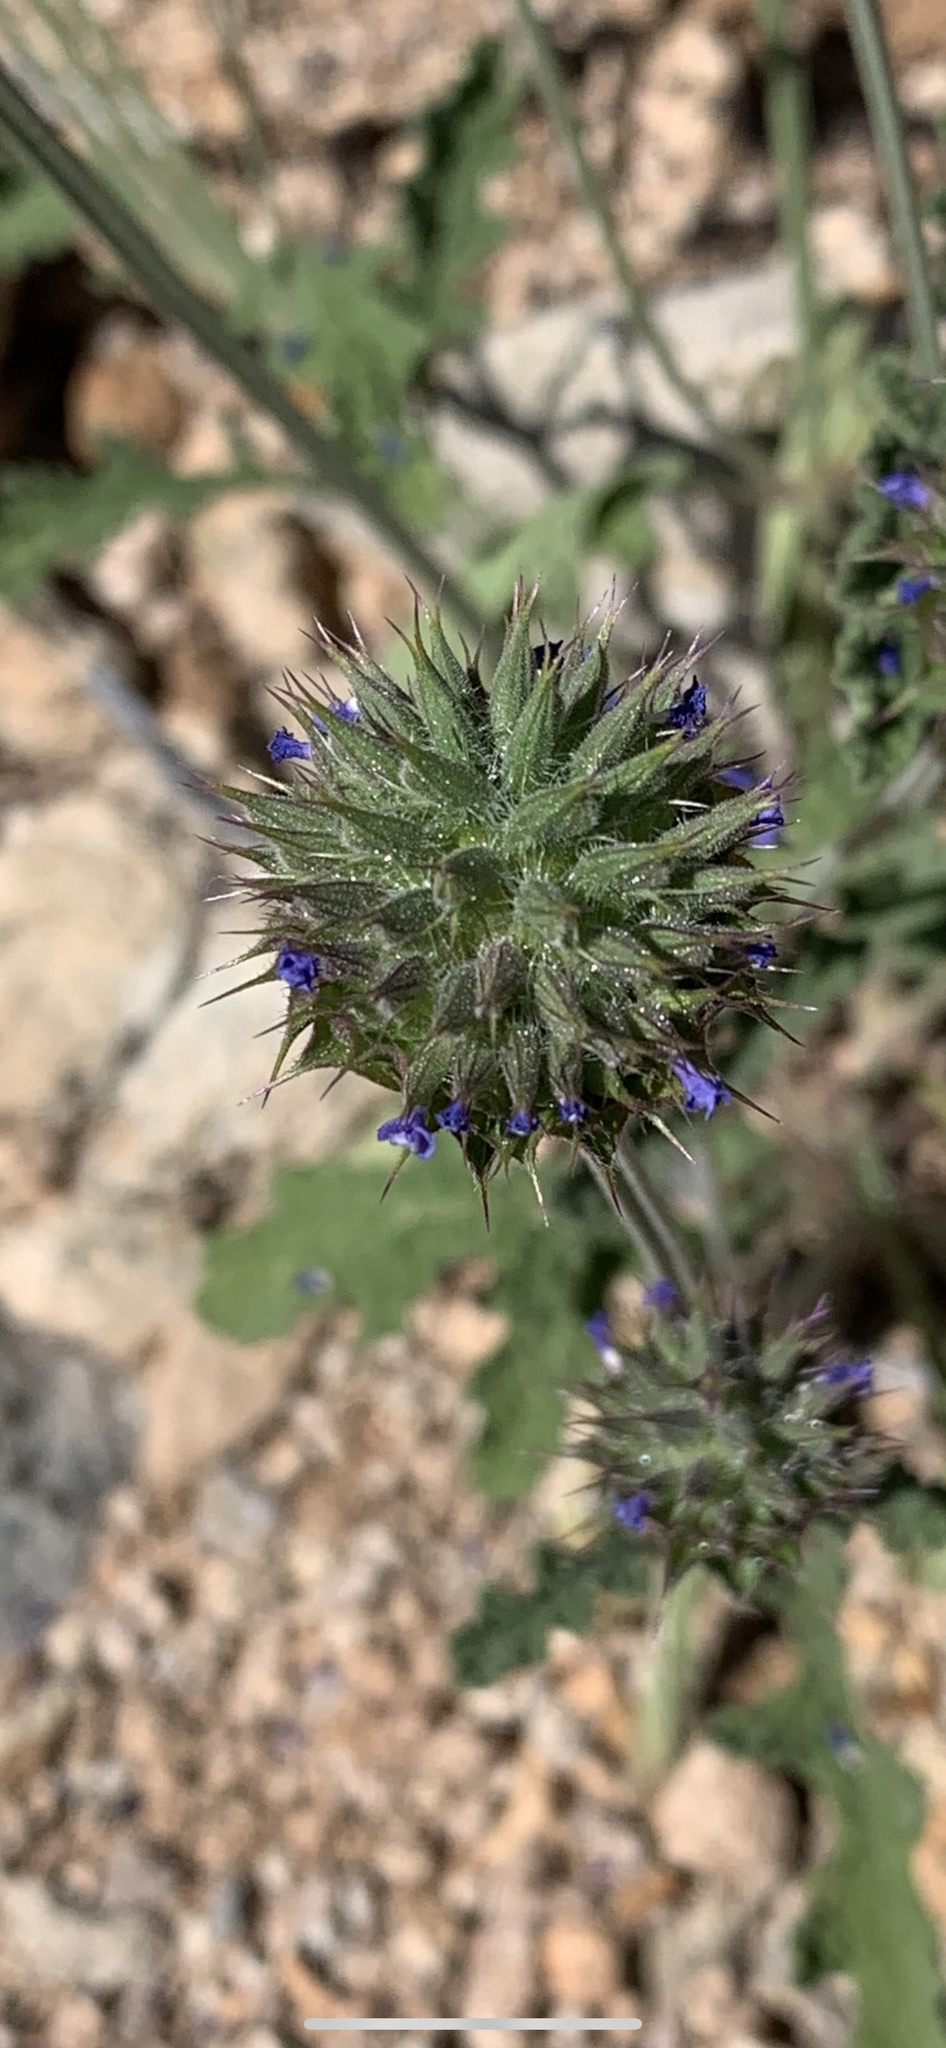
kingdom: Plantae
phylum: Tracheophyta
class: Magnoliopsida
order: Lamiales
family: Lamiaceae
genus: Salvia
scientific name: Salvia columbariae
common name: Chia
